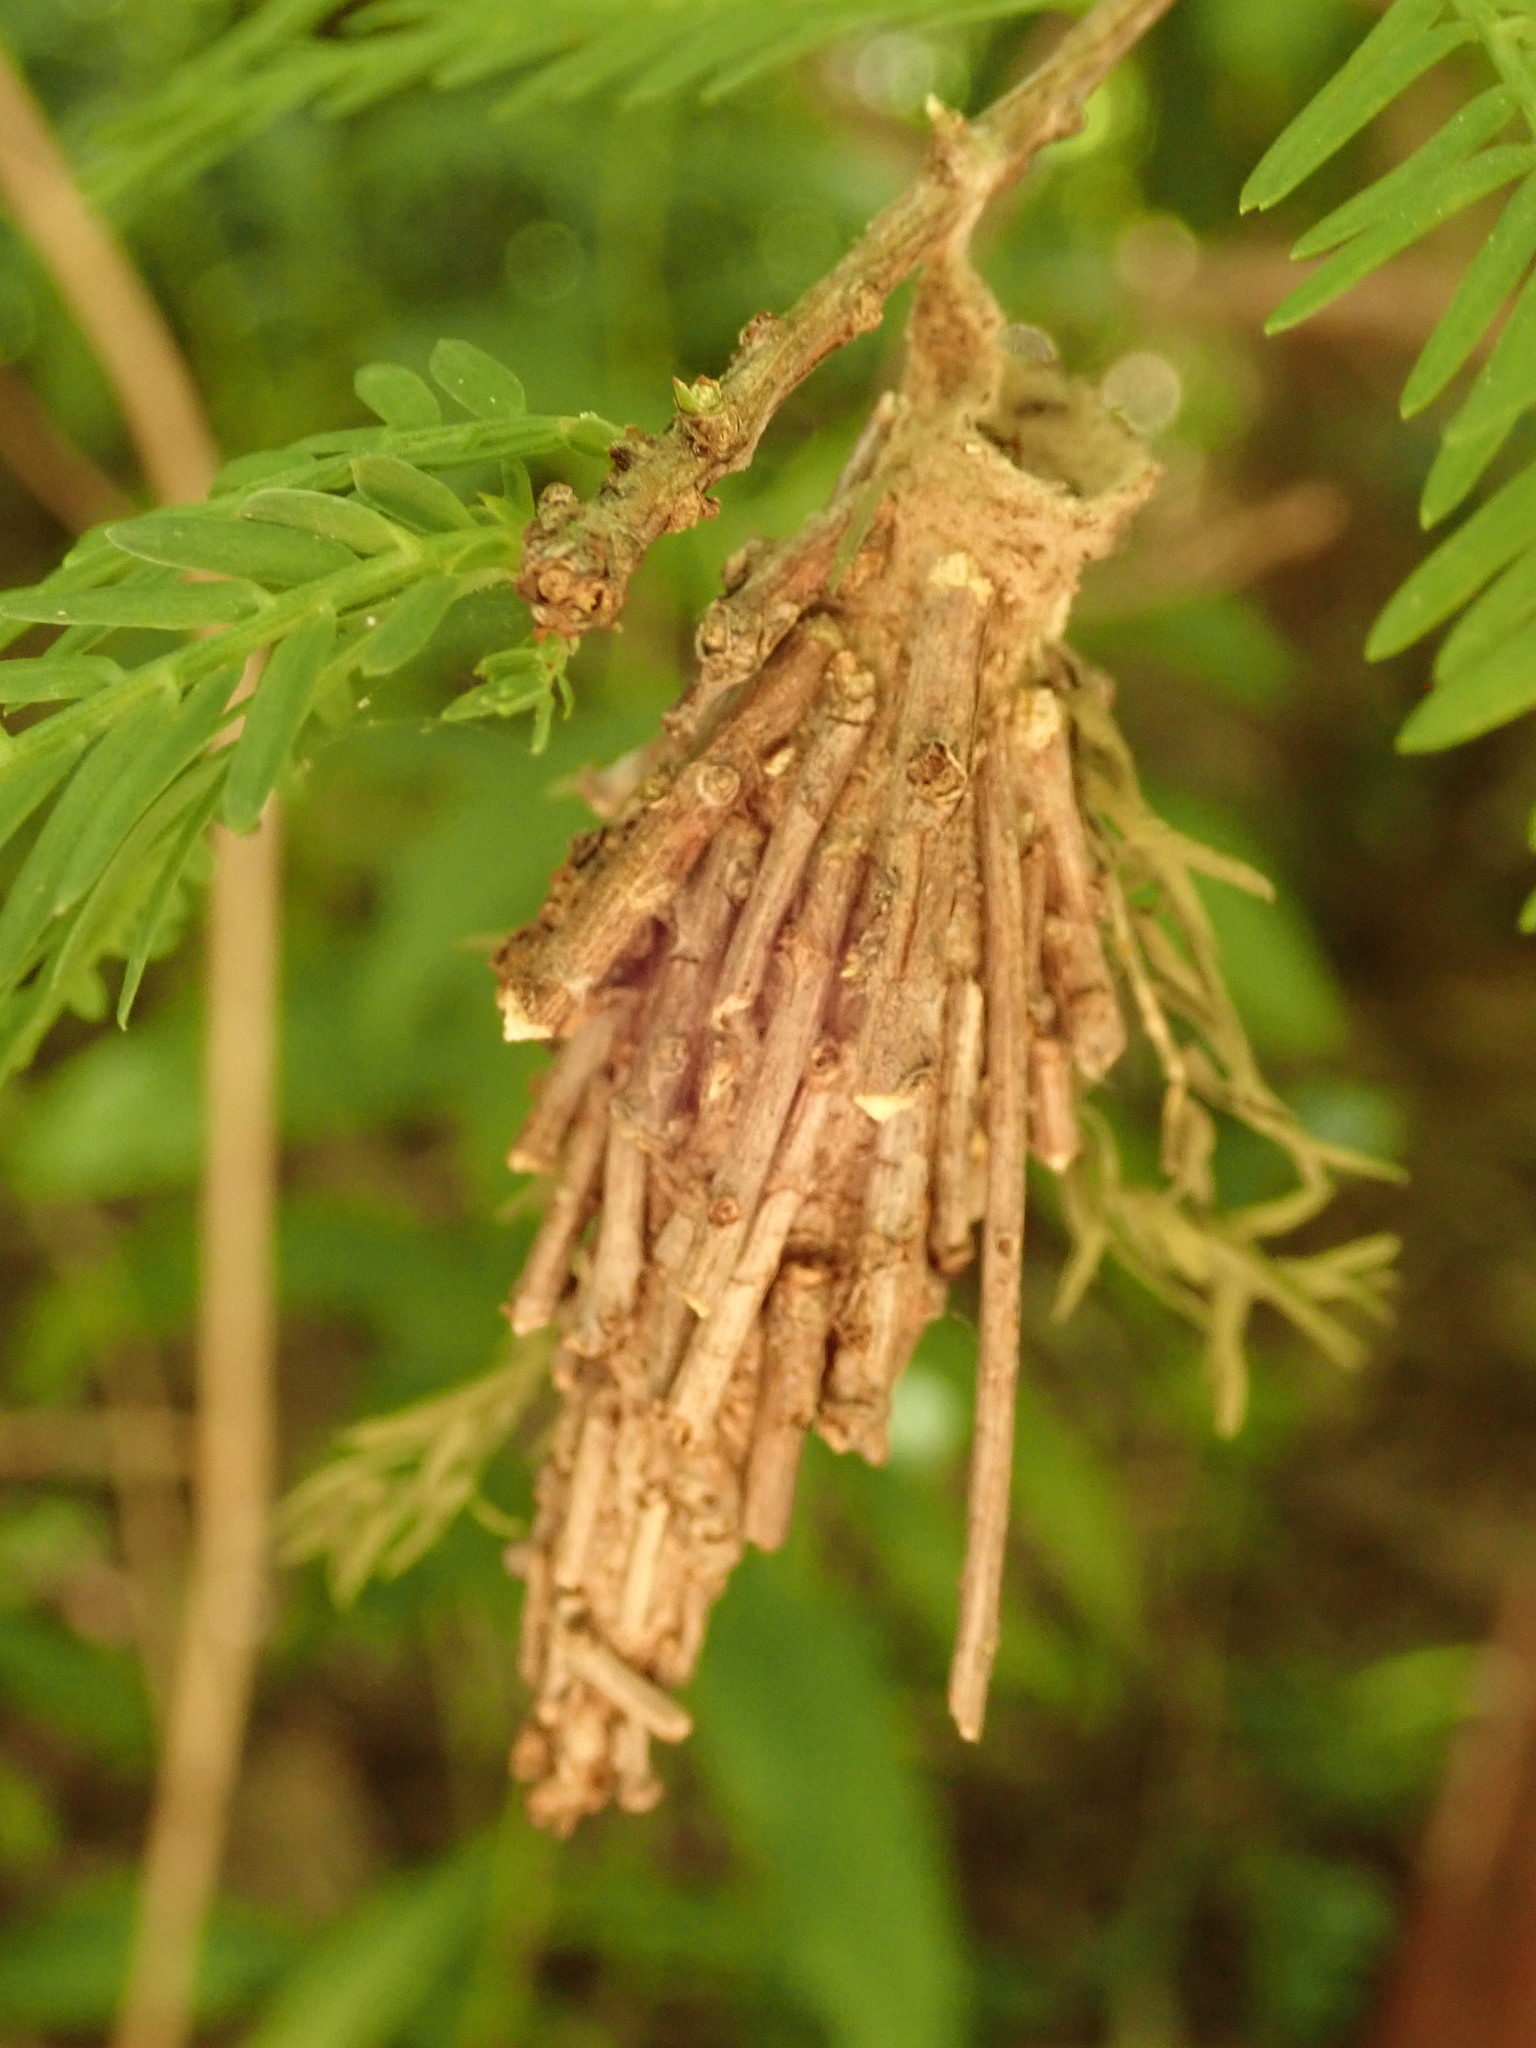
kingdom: Animalia
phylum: Arthropoda
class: Insecta
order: Lepidoptera
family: Psychidae
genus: Thyridopteryx
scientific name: Thyridopteryx ephemeraeformis
